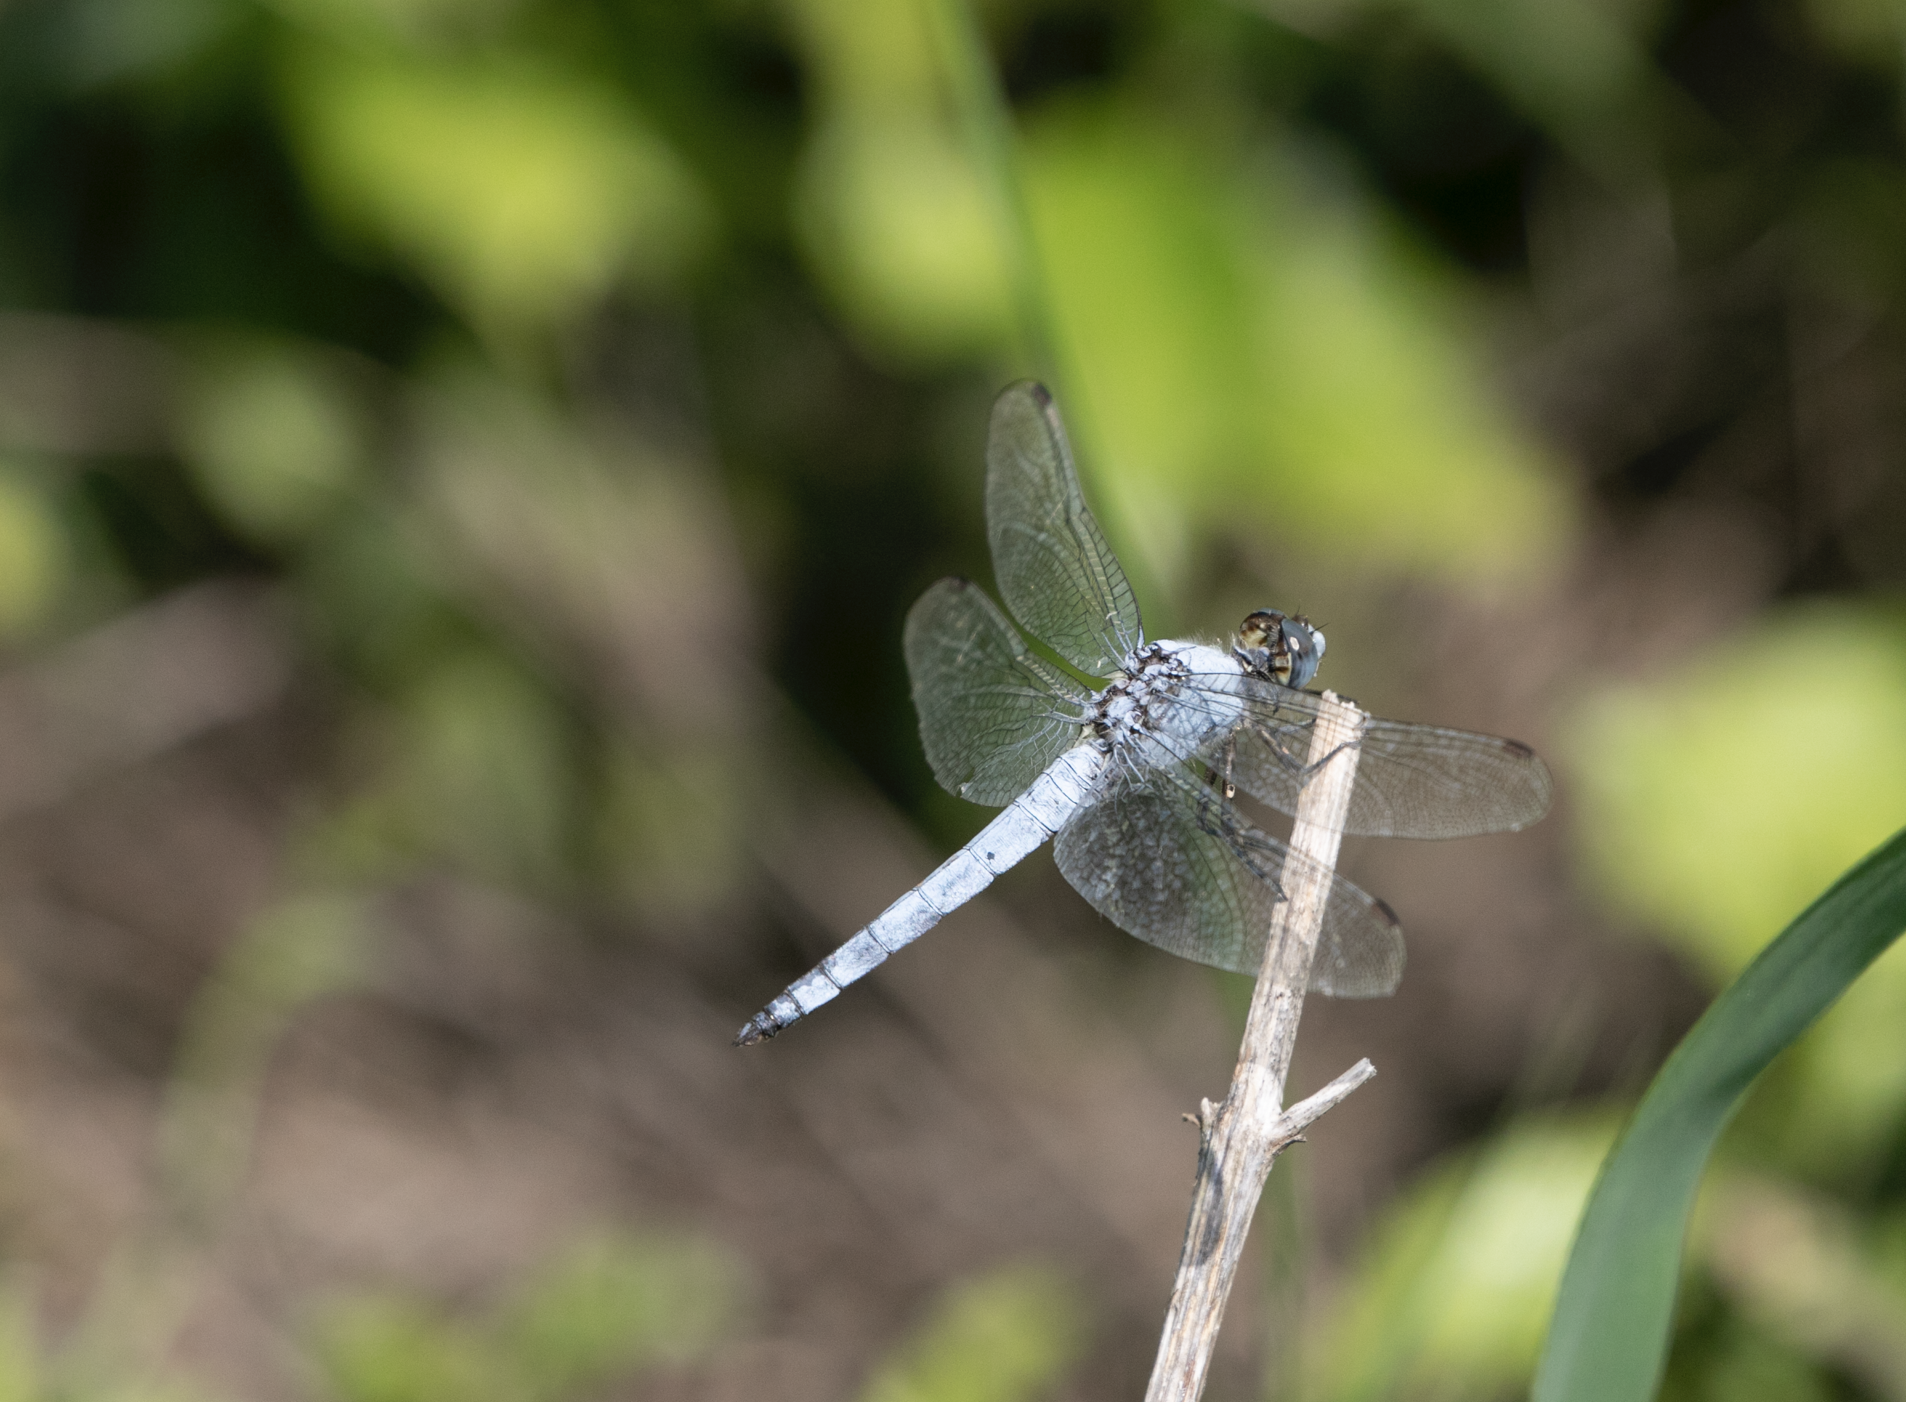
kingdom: Animalia
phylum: Arthropoda
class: Insecta
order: Odonata
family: Libellulidae
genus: Orthetrum
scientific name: Orthetrum brunneum
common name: Southern skimmer
